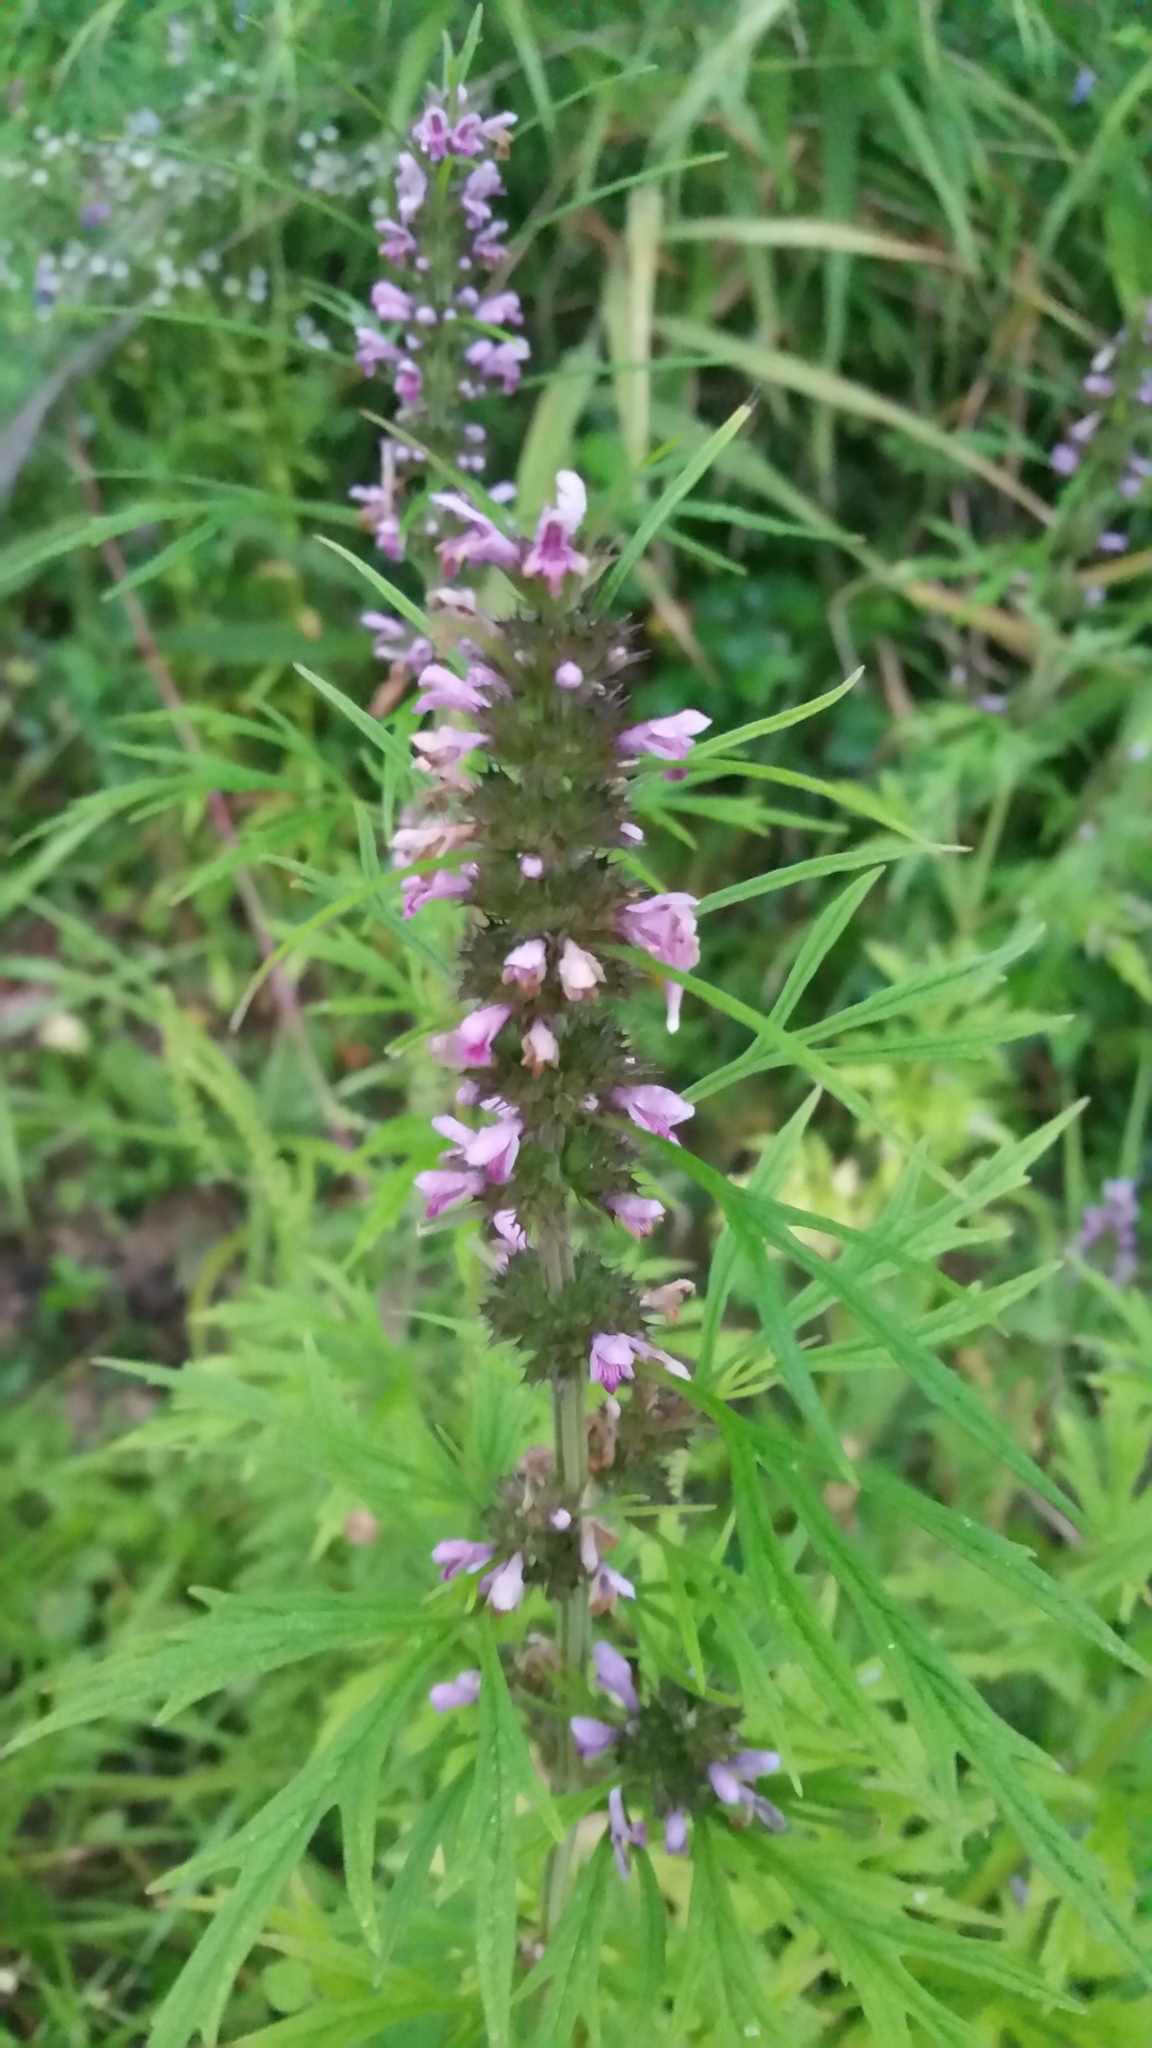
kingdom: Plantae
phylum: Tracheophyta
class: Magnoliopsida
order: Lamiales
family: Lamiaceae
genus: Leonurus
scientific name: Leonurus japonicus
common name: Honeyweed
